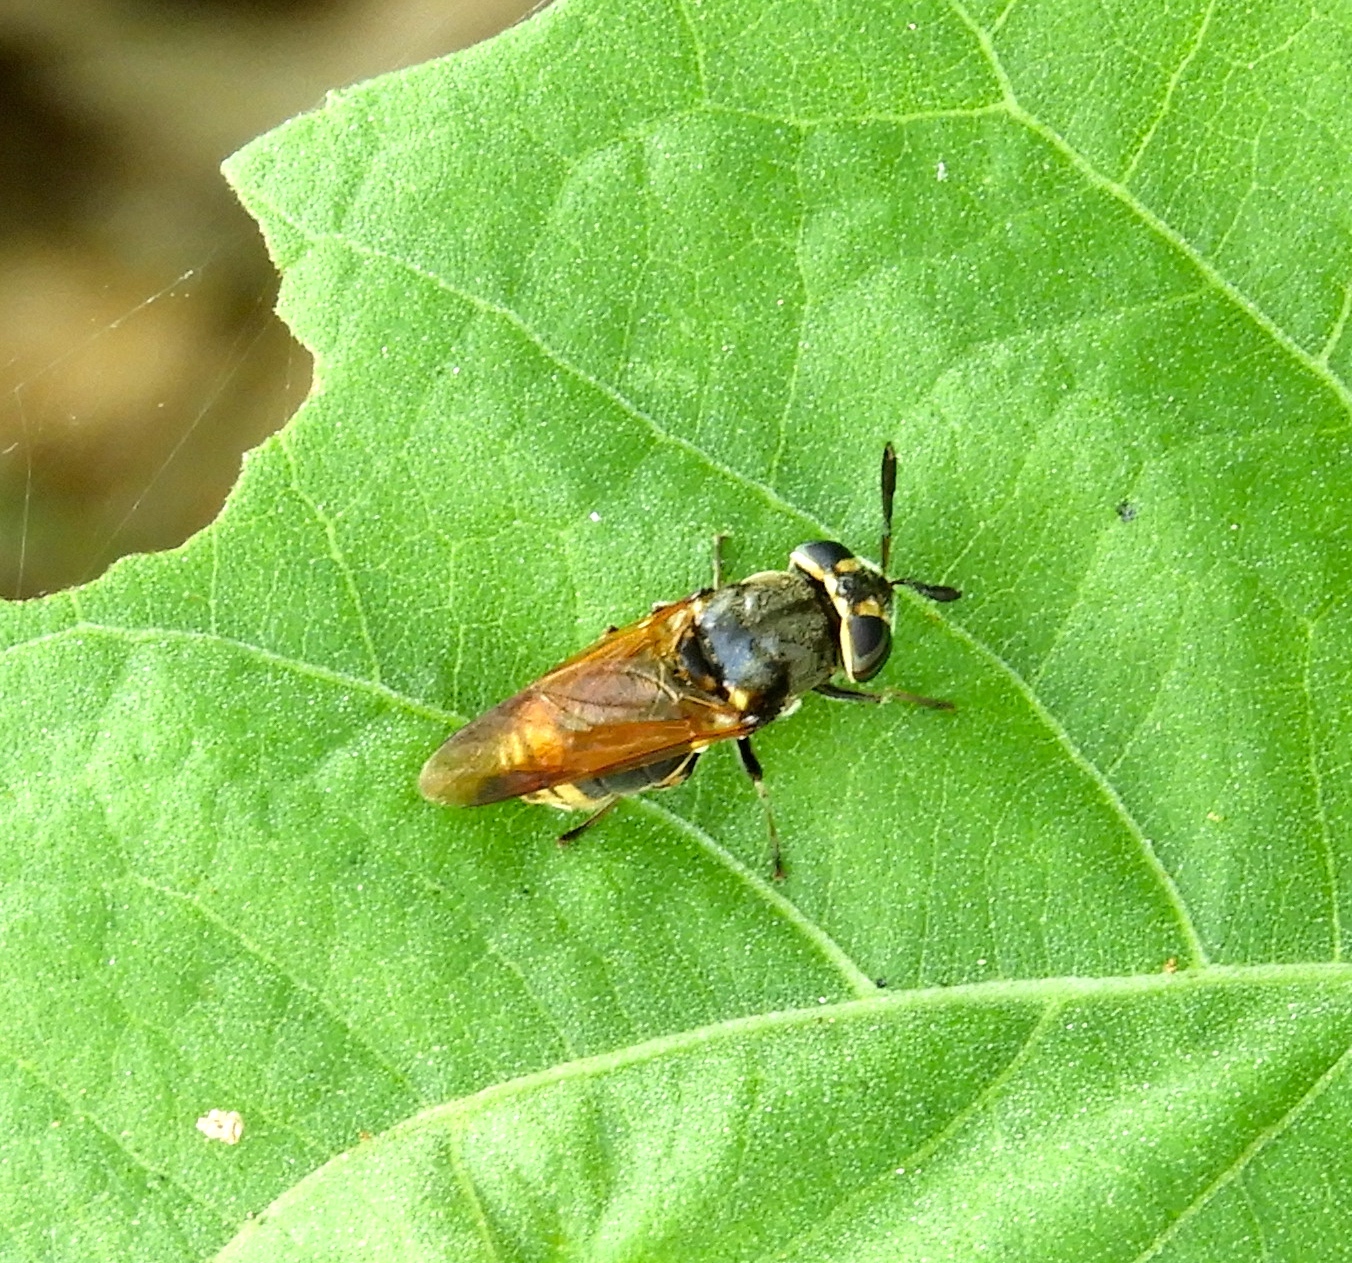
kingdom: Animalia
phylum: Arthropoda
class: Insecta
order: Diptera
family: Stratiomyidae
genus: Hoplitimyia
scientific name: Hoplitimyia mutabilis
